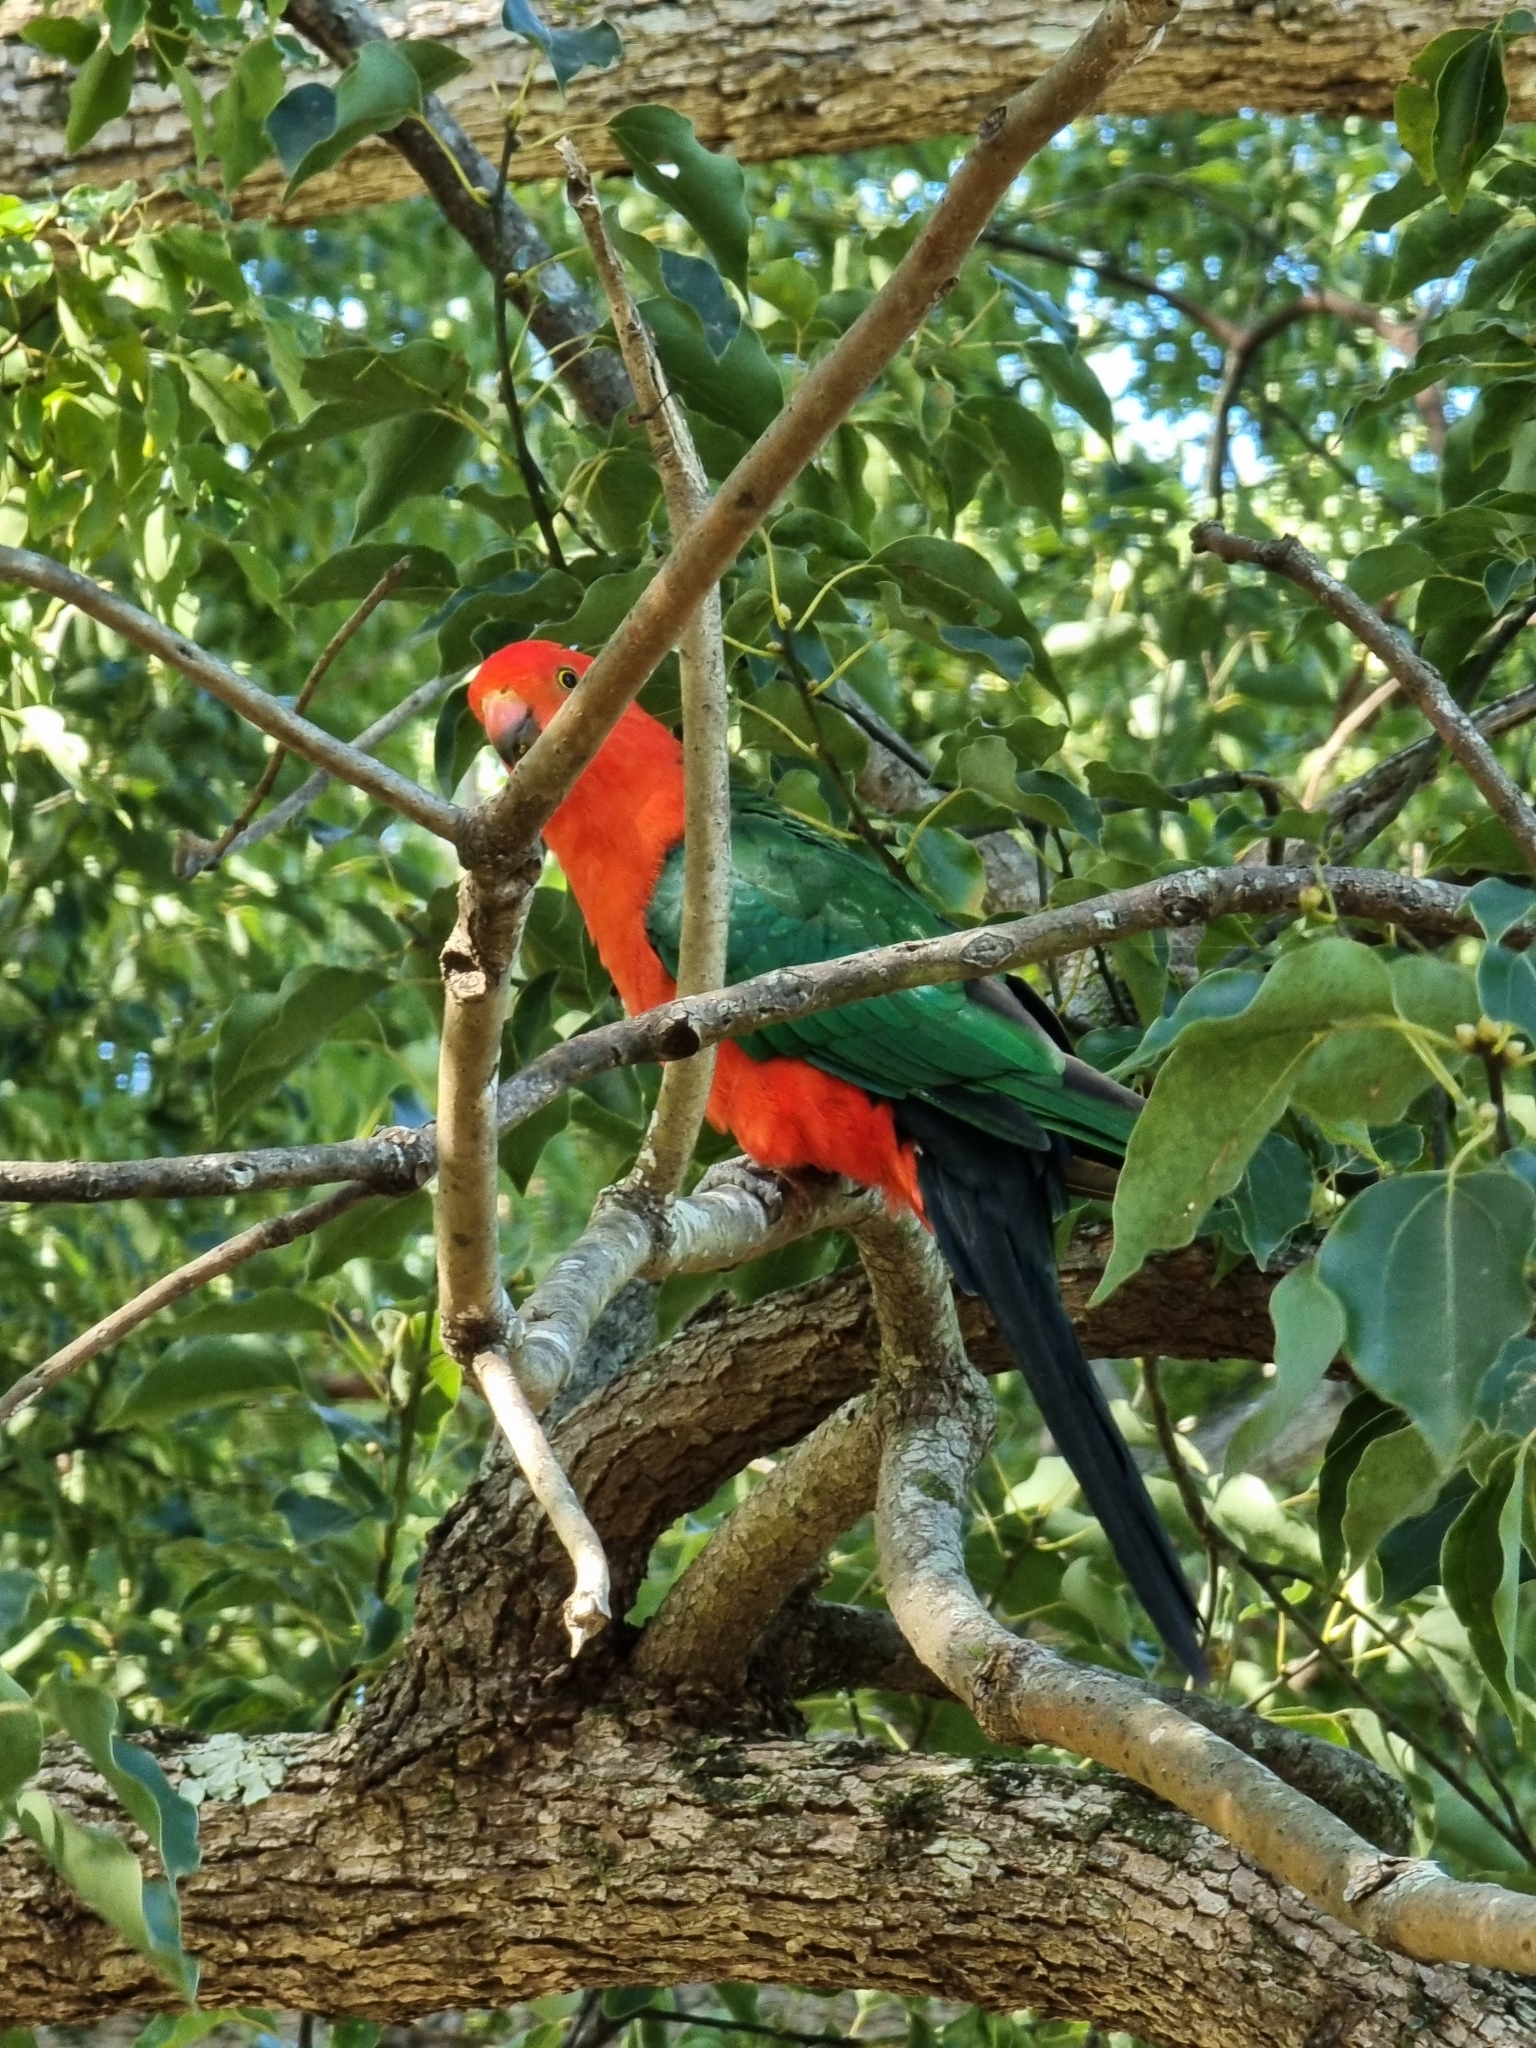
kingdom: Animalia
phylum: Chordata
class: Aves
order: Psittaciformes
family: Psittacidae
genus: Alisterus
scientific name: Alisterus scapularis
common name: Australian king parrot
